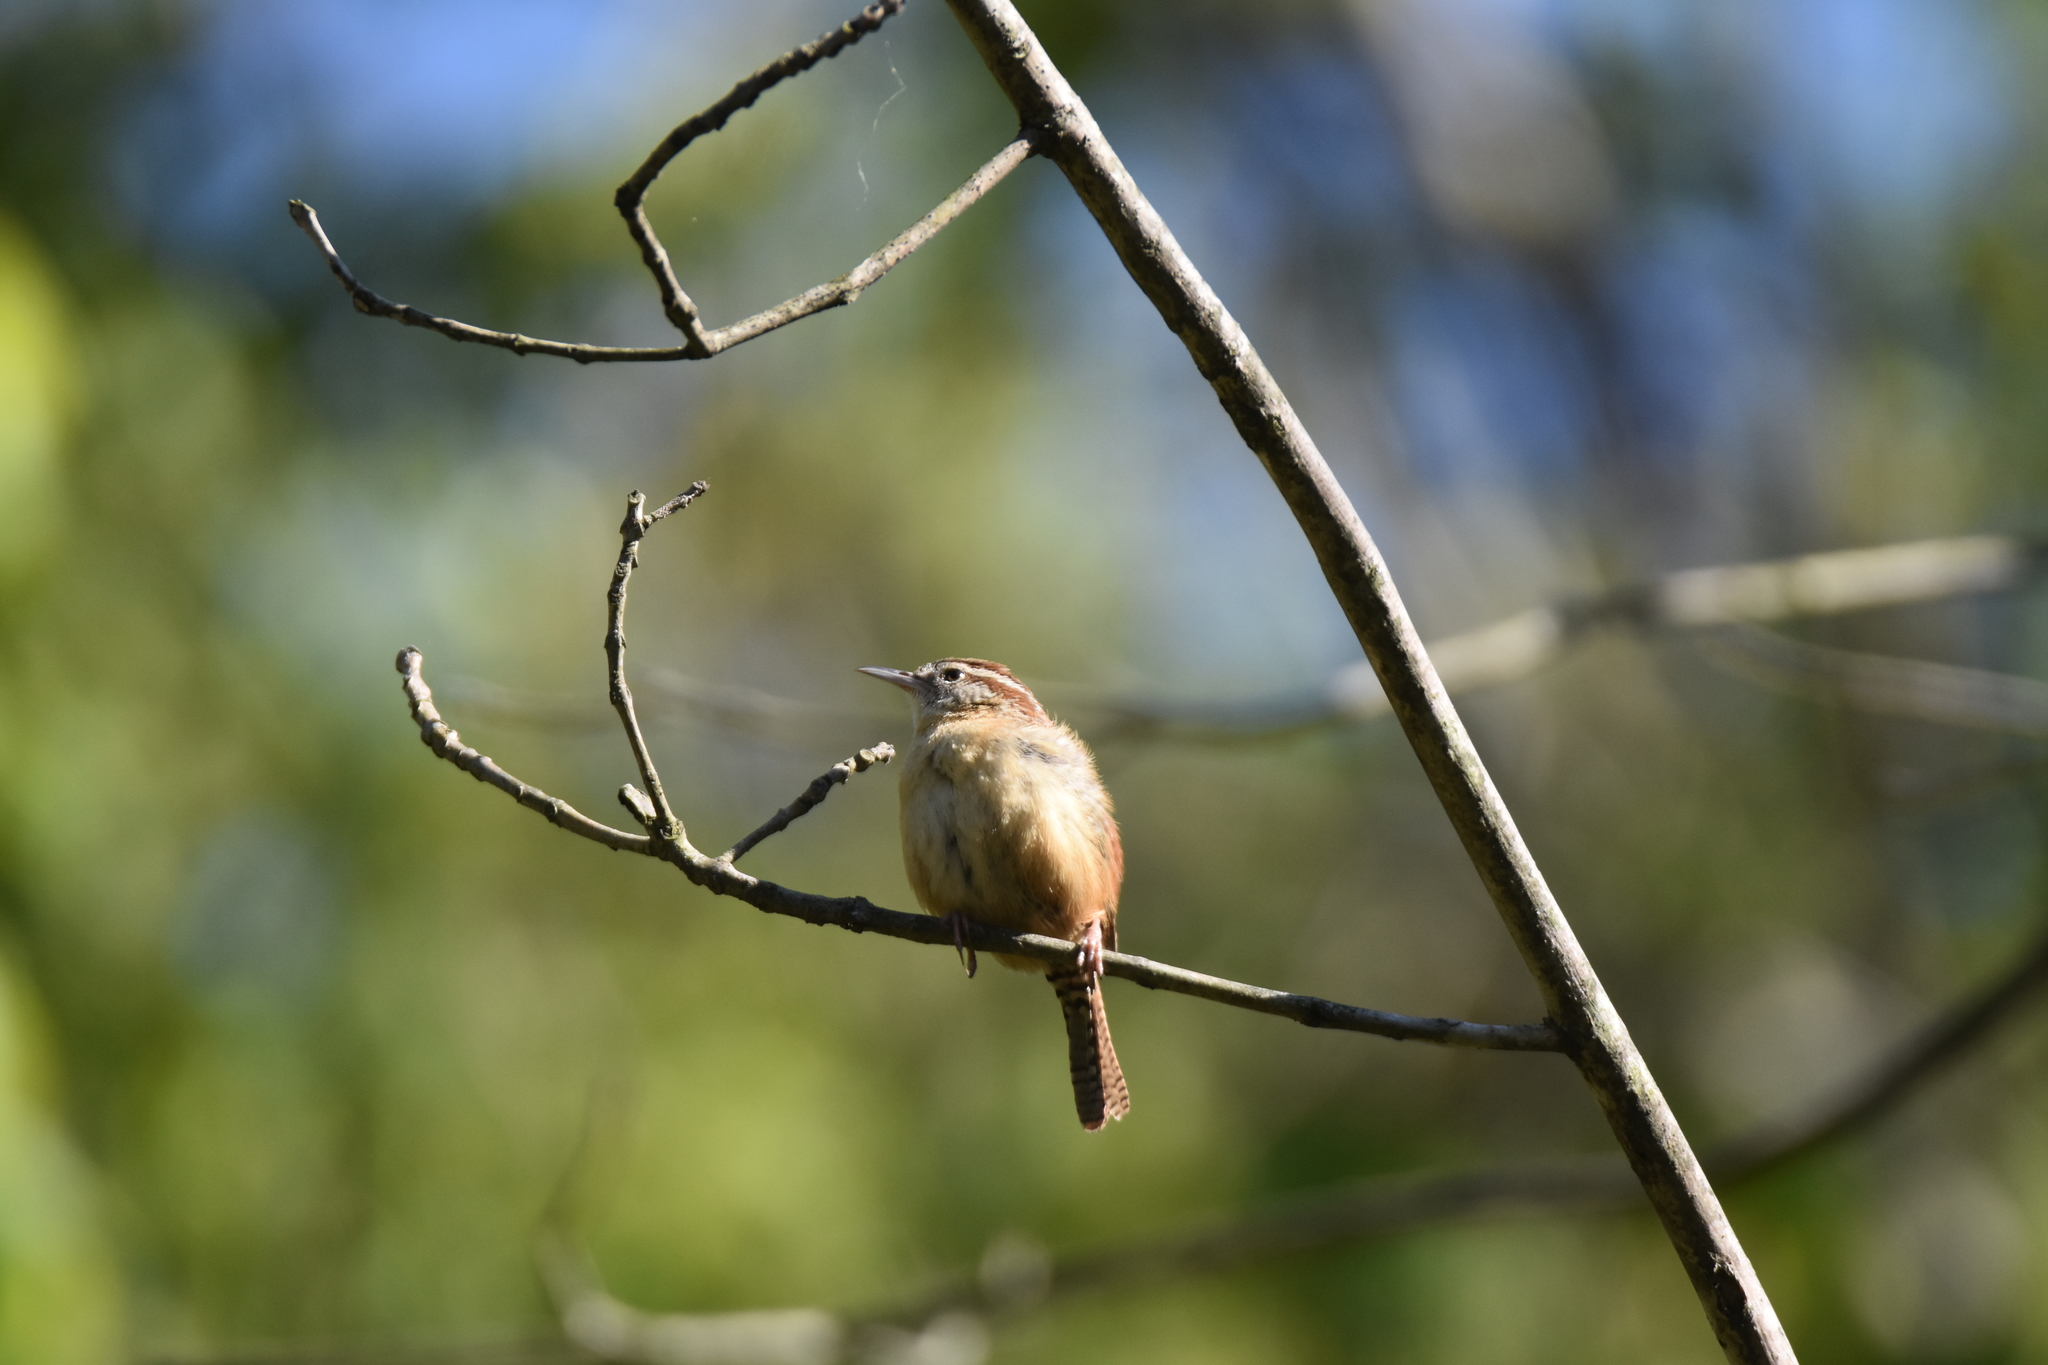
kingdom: Animalia
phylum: Chordata
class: Aves
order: Passeriformes
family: Troglodytidae
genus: Thryothorus
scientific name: Thryothorus ludovicianus
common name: Carolina wren
